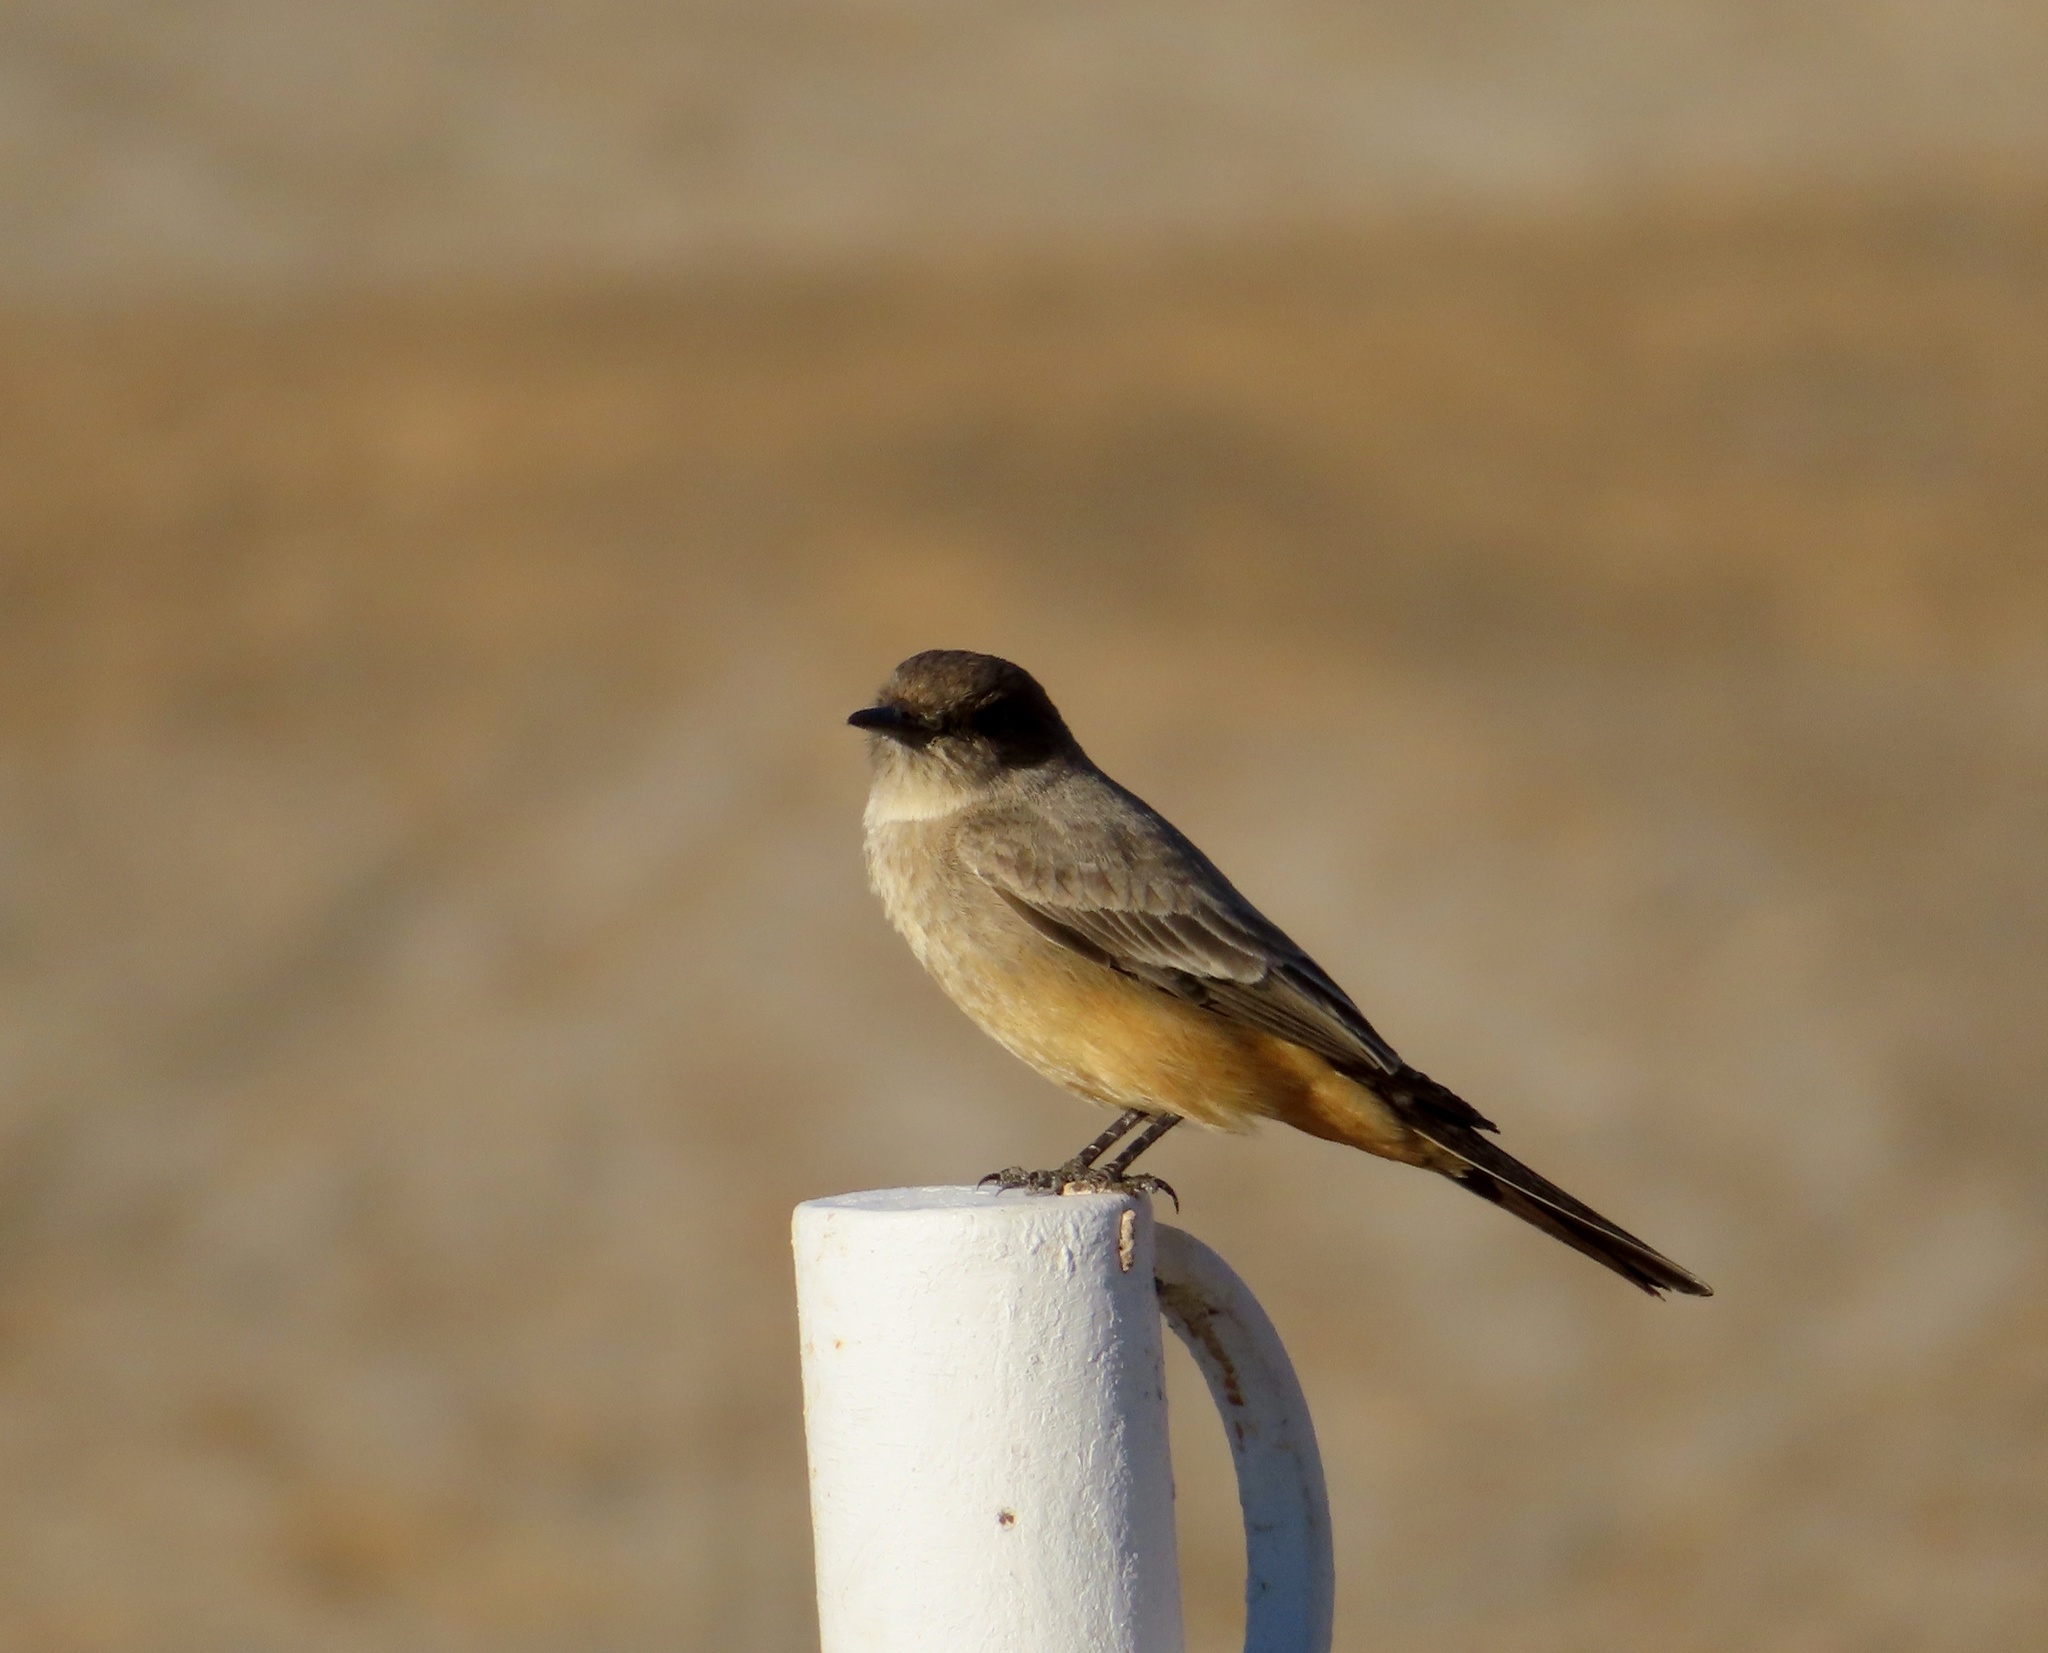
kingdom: Animalia
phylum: Chordata
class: Aves
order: Passeriformes
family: Tyrannidae
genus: Sayornis
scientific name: Sayornis saya
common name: Say's phoebe
